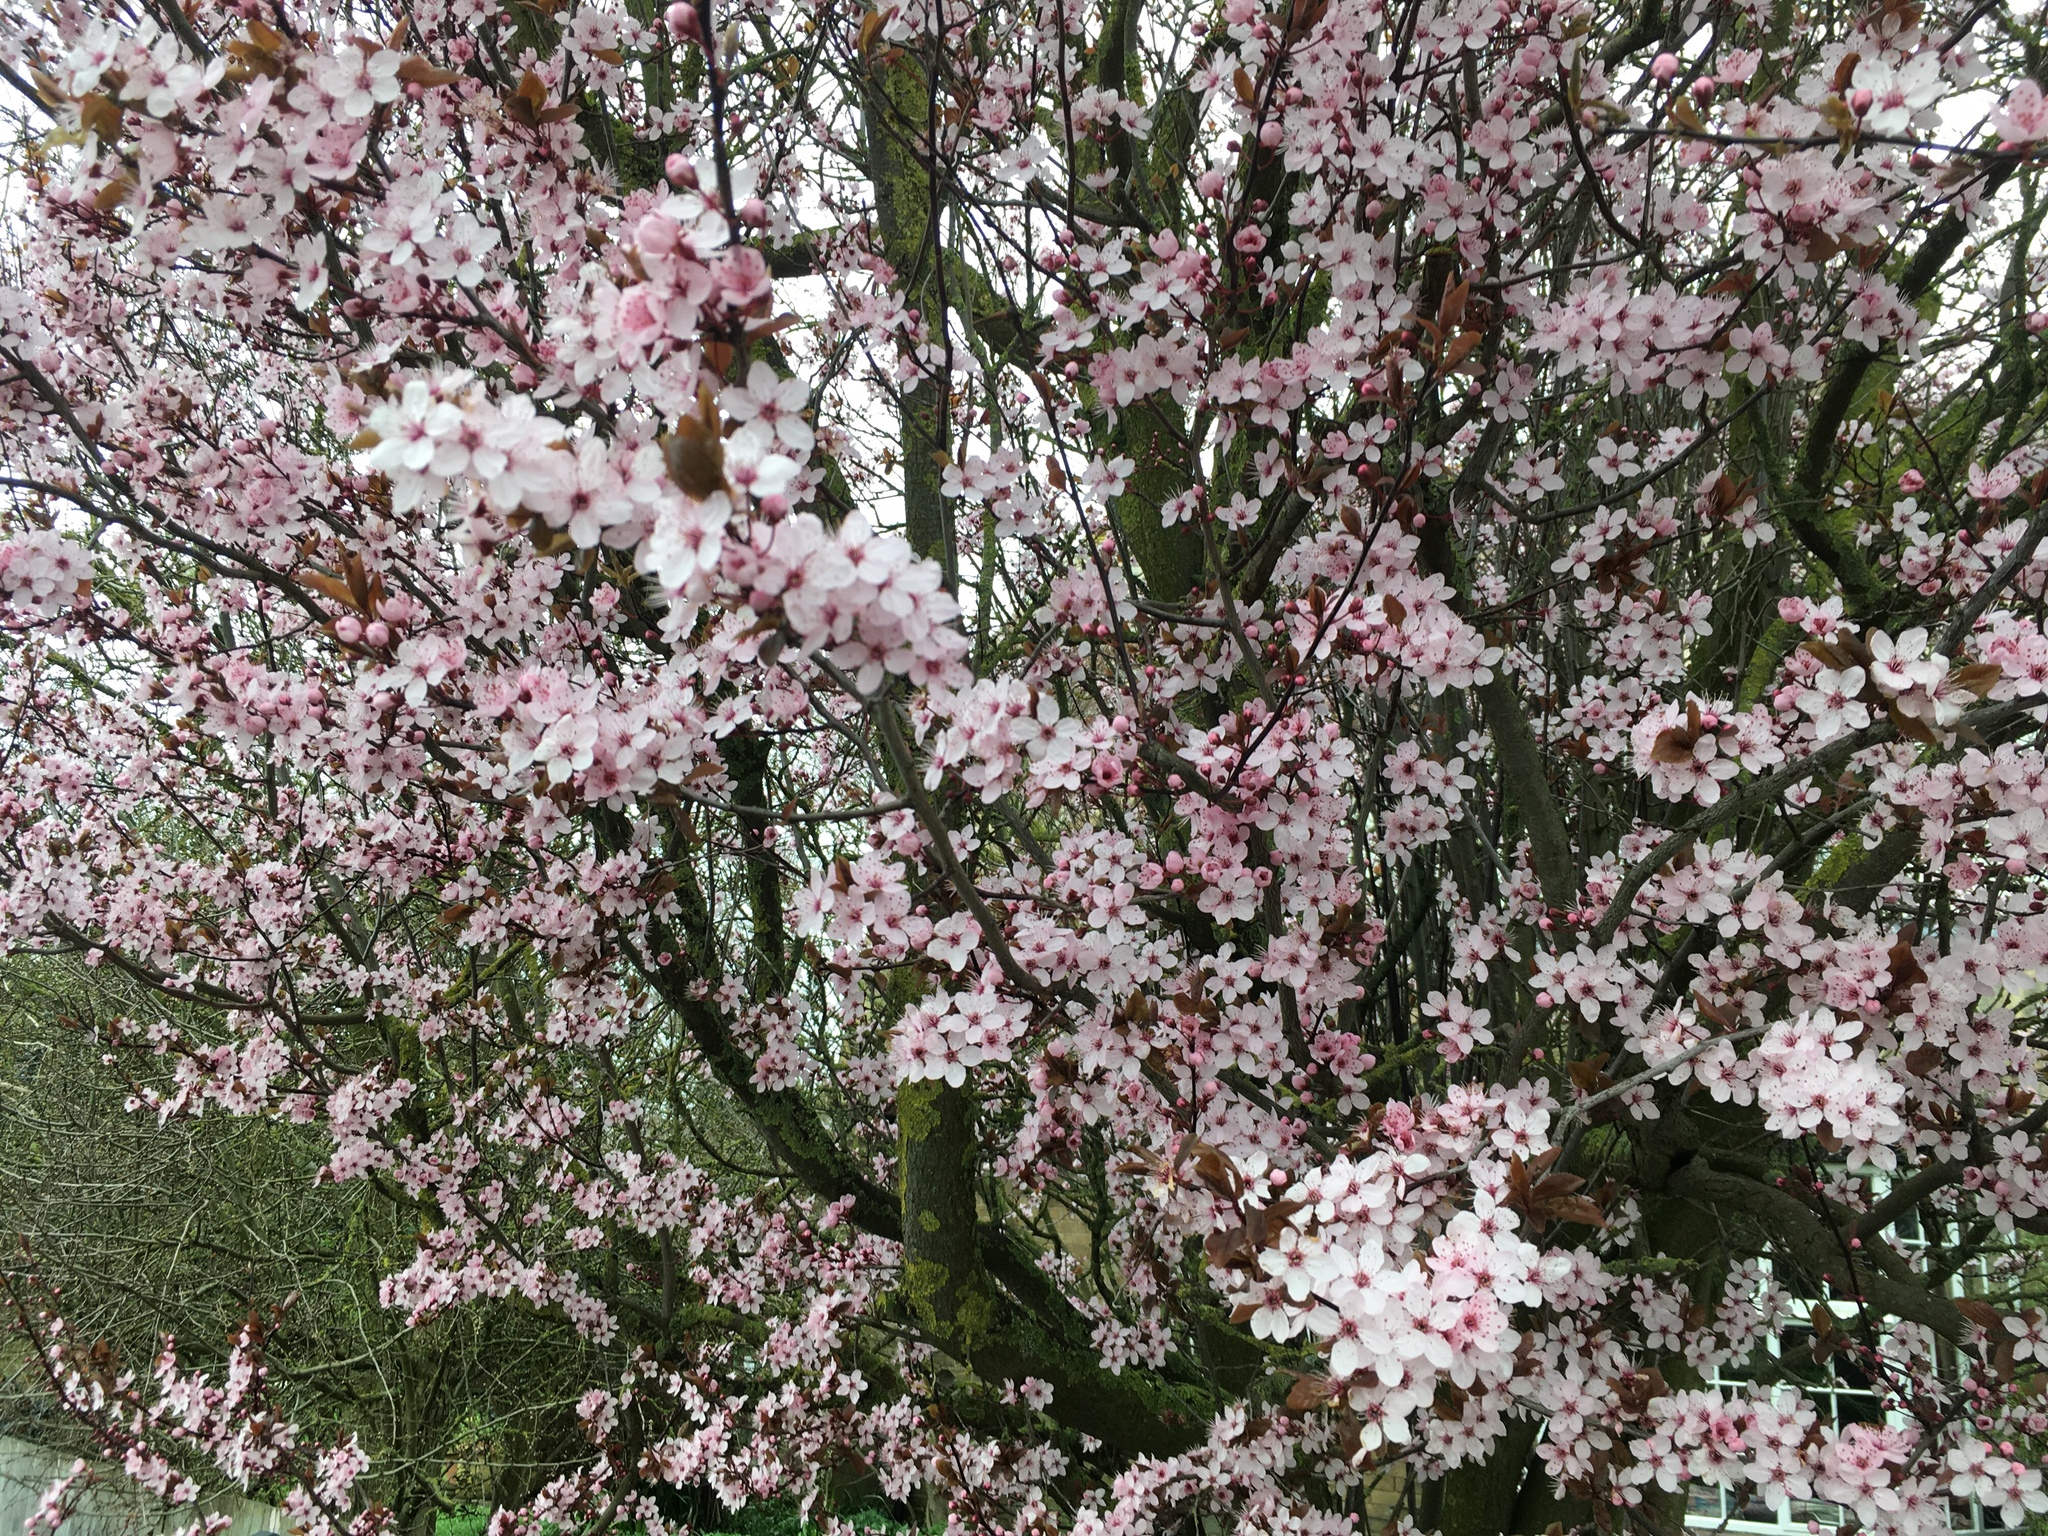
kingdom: Plantae
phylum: Tracheophyta
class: Magnoliopsida
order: Rosales
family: Rosaceae
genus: Prunus
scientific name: Prunus cerasifera
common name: Cherry plum
